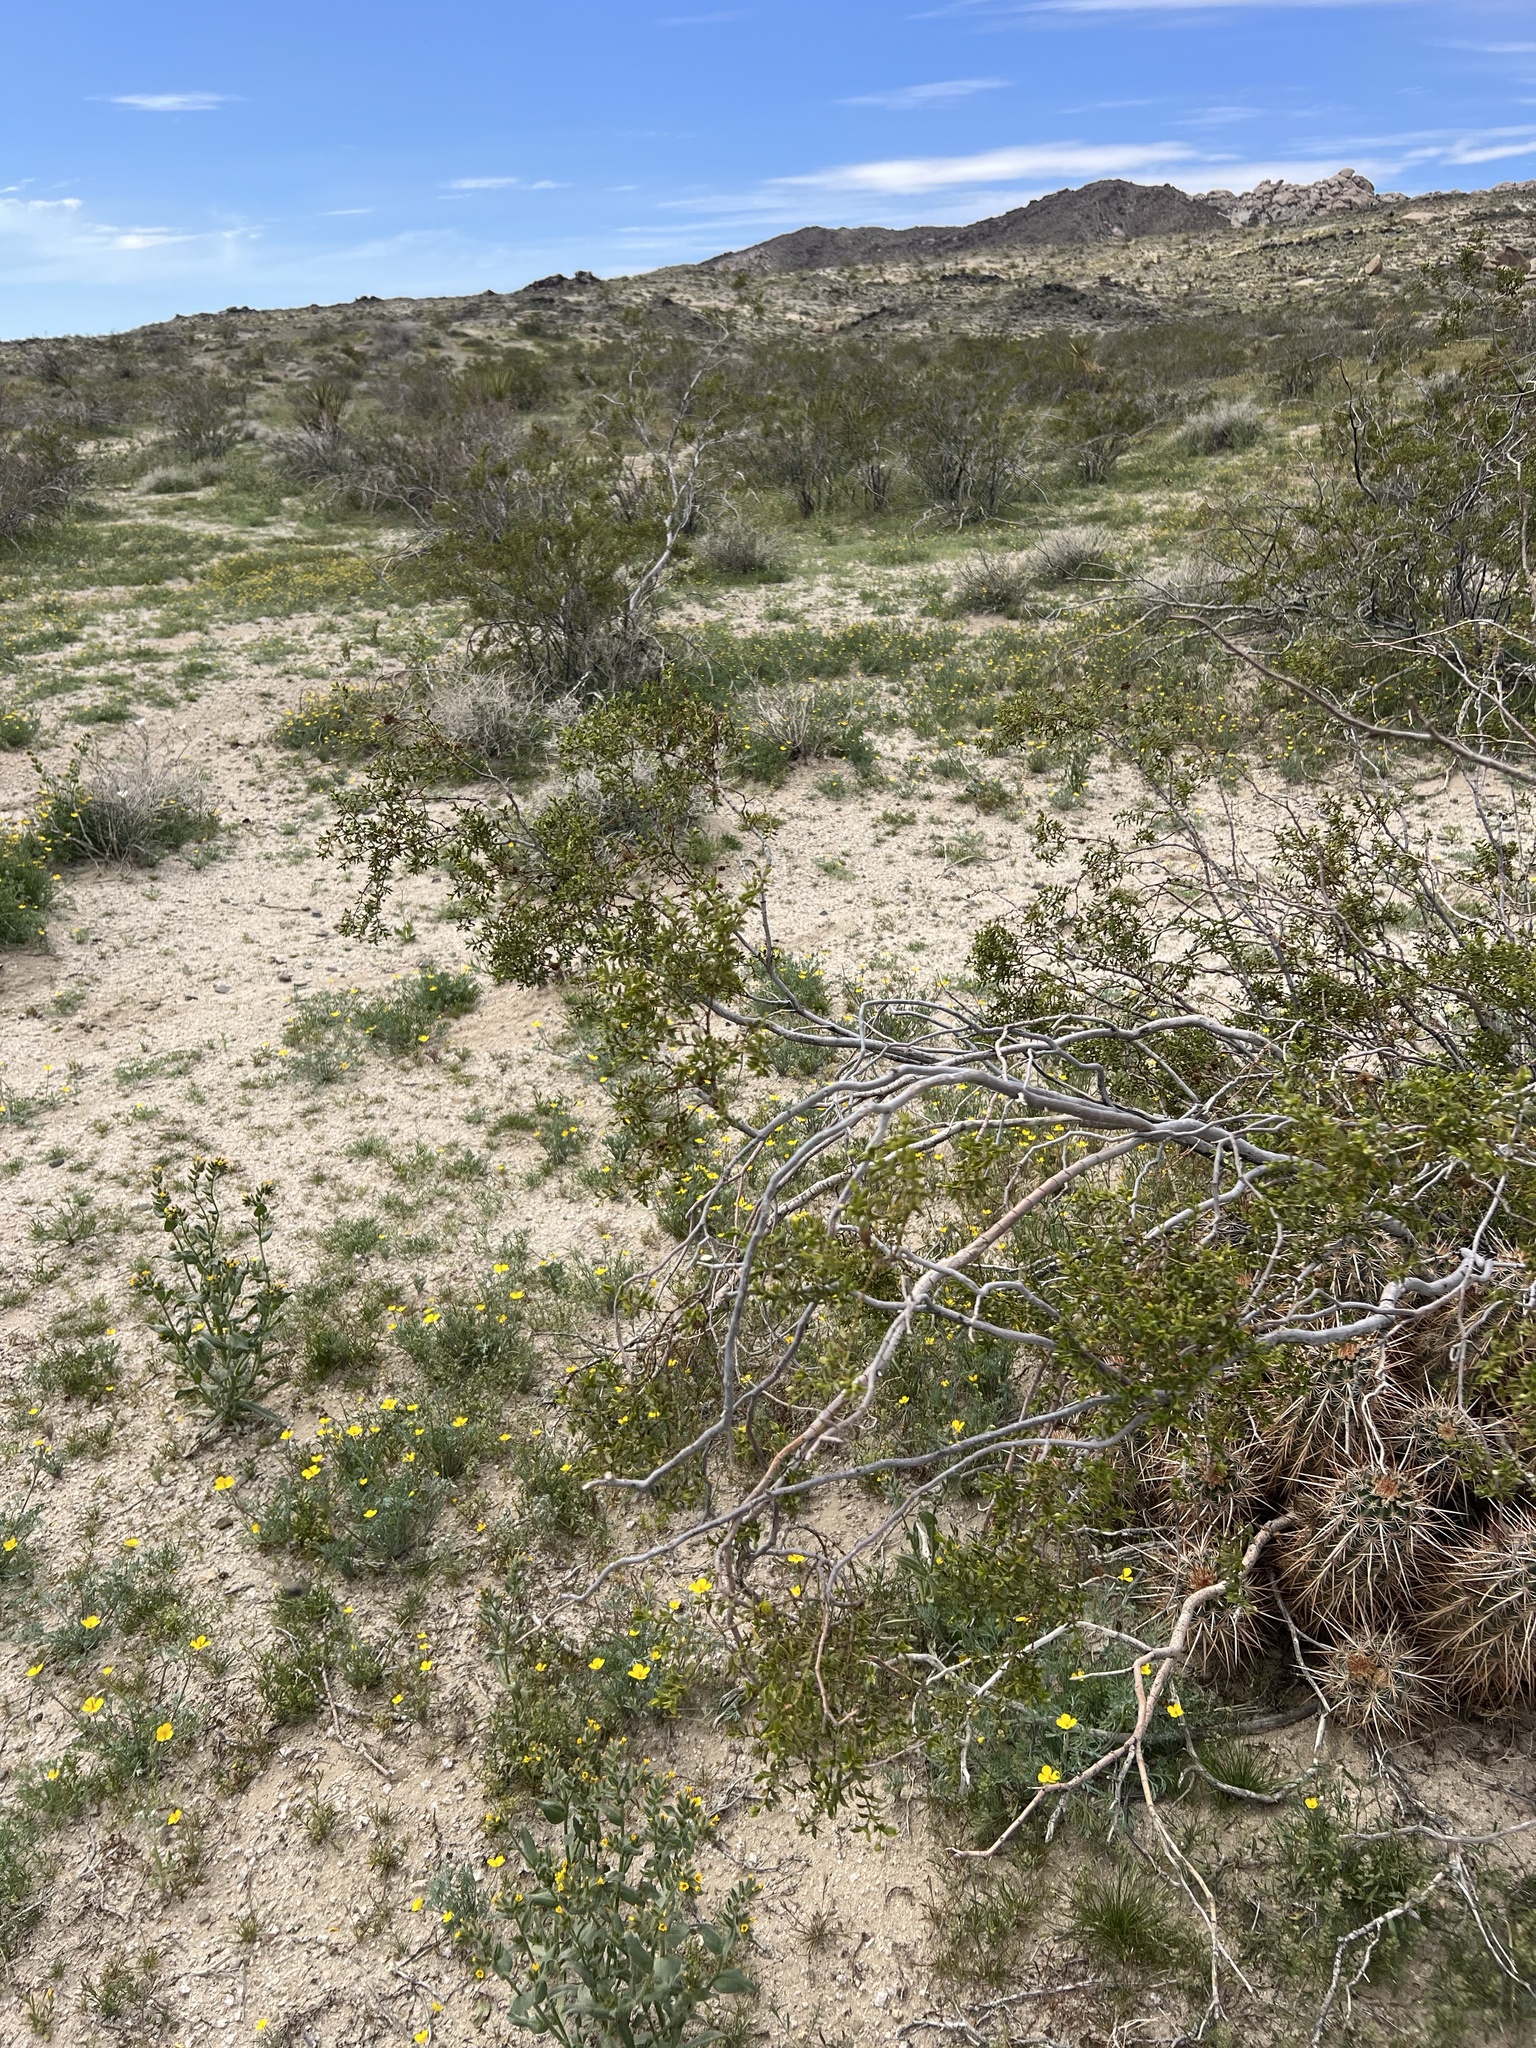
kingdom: Plantae
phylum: Tracheophyta
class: Magnoliopsida
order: Zygophyllales
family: Zygophyllaceae
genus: Larrea
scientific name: Larrea tridentata
